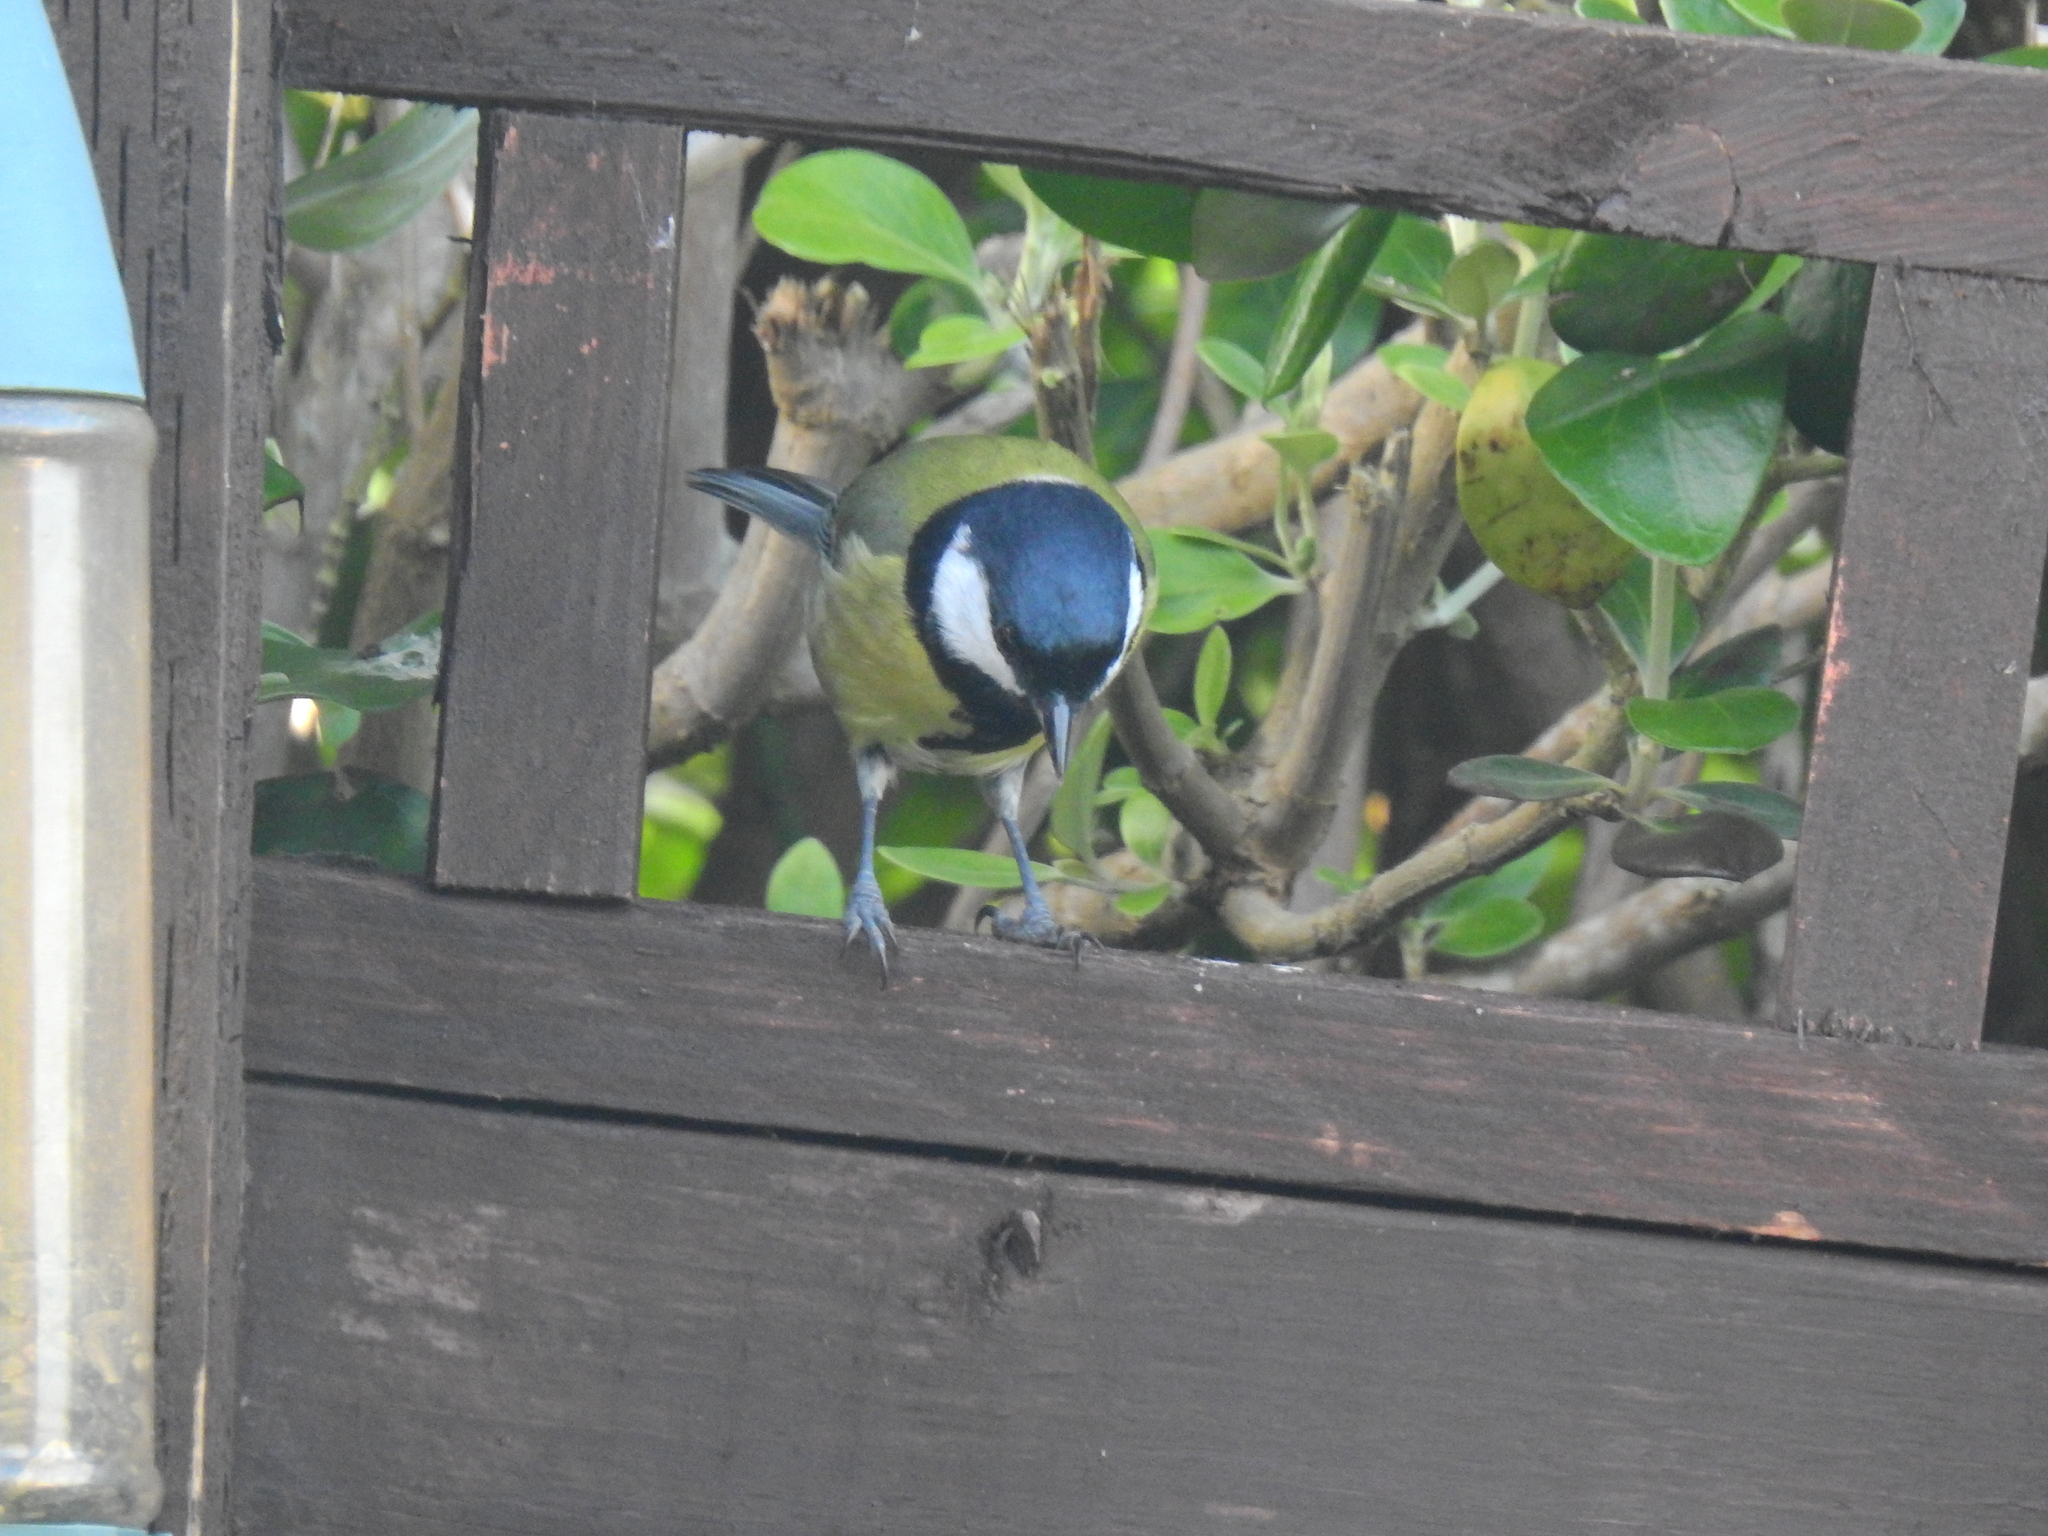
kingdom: Animalia
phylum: Chordata
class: Aves
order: Passeriformes
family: Paridae
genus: Parus
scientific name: Parus major
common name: Great tit
